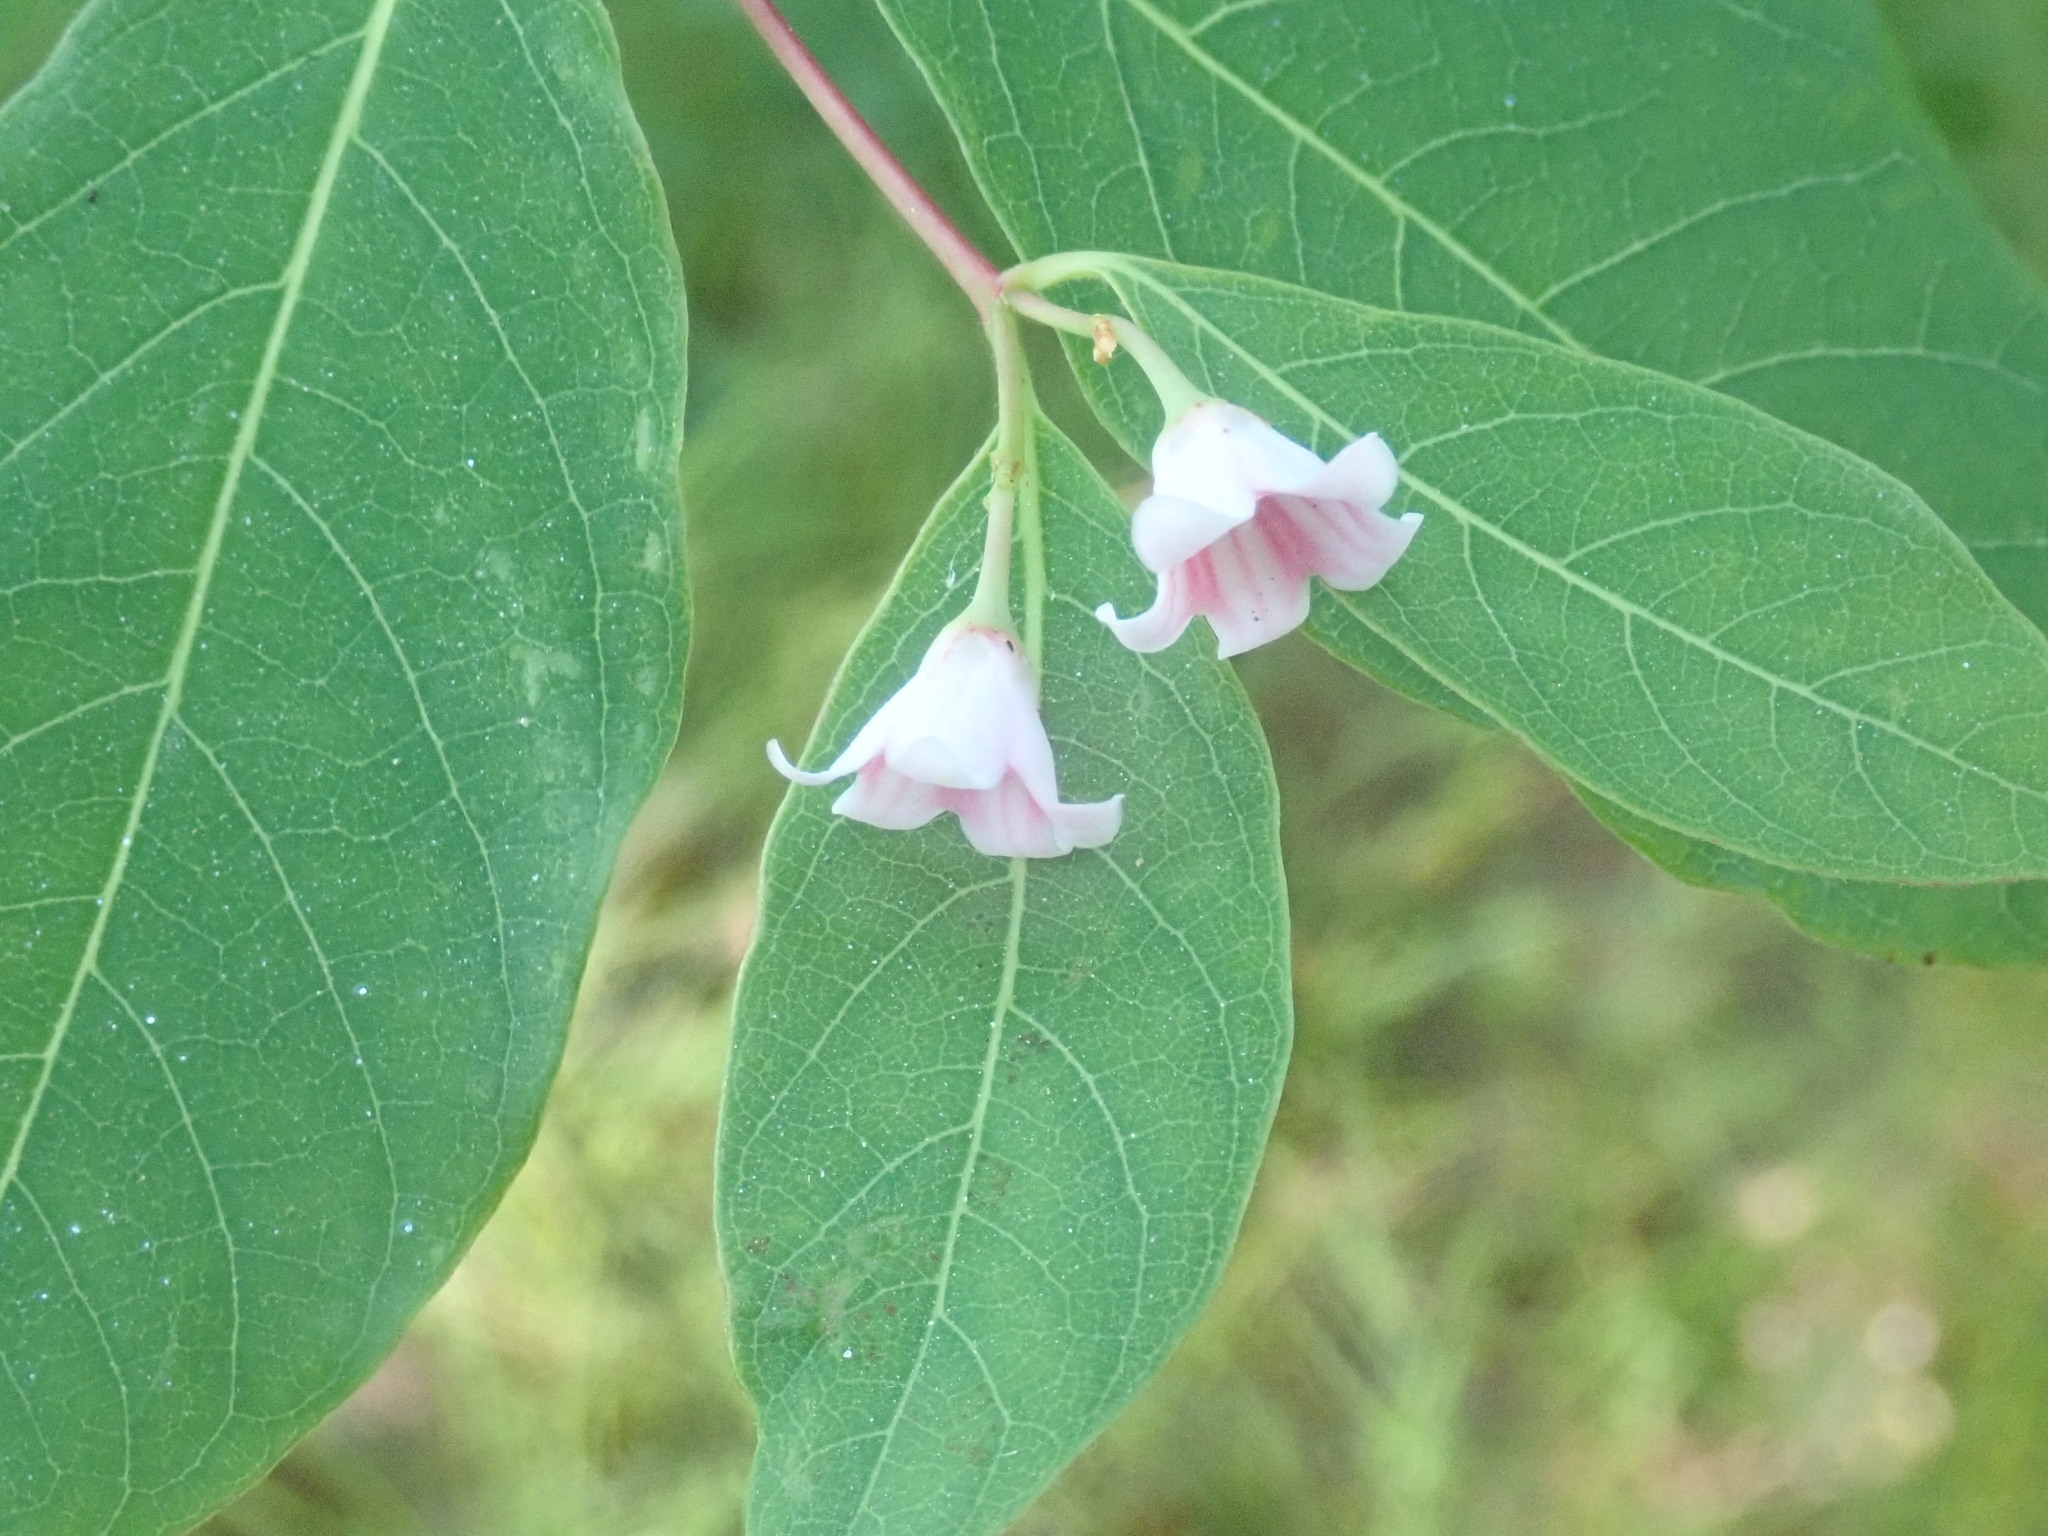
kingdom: Plantae
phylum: Tracheophyta
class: Magnoliopsida
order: Gentianales
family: Apocynaceae
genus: Apocynum
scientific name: Apocynum androsaemifolium
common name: Spreading dogbane
